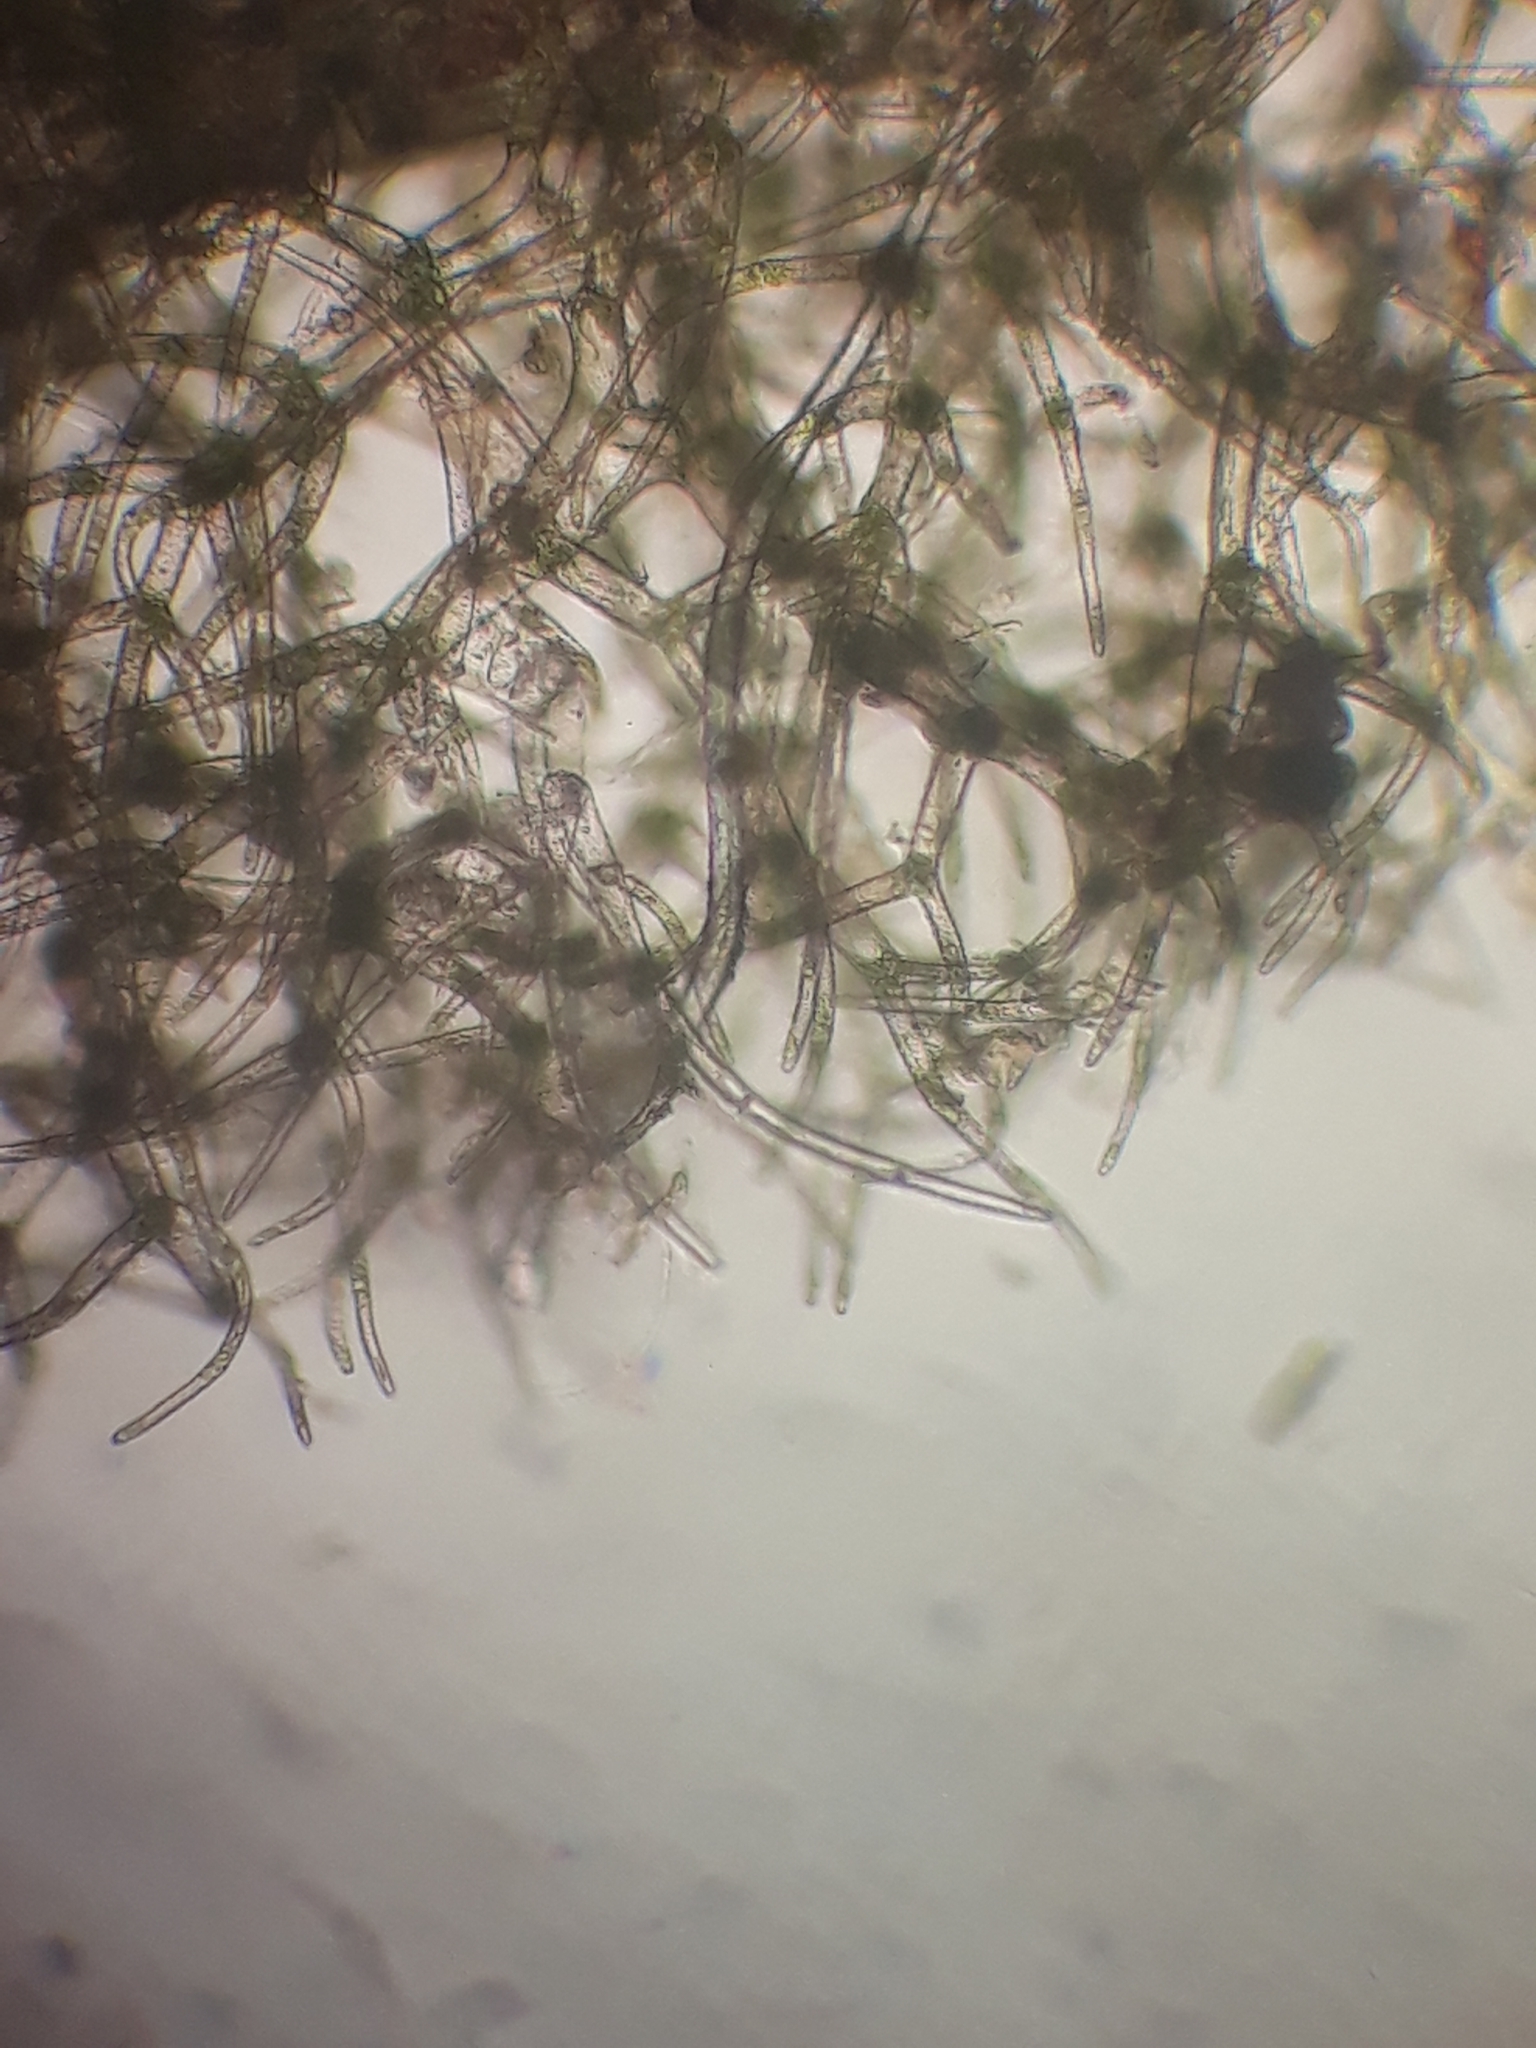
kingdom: Plantae
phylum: Marchantiophyta
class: Jungermanniopsida
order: Jungermanniales
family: Trichocoleaceae
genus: Trichocolea
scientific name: Trichocolea rigida
